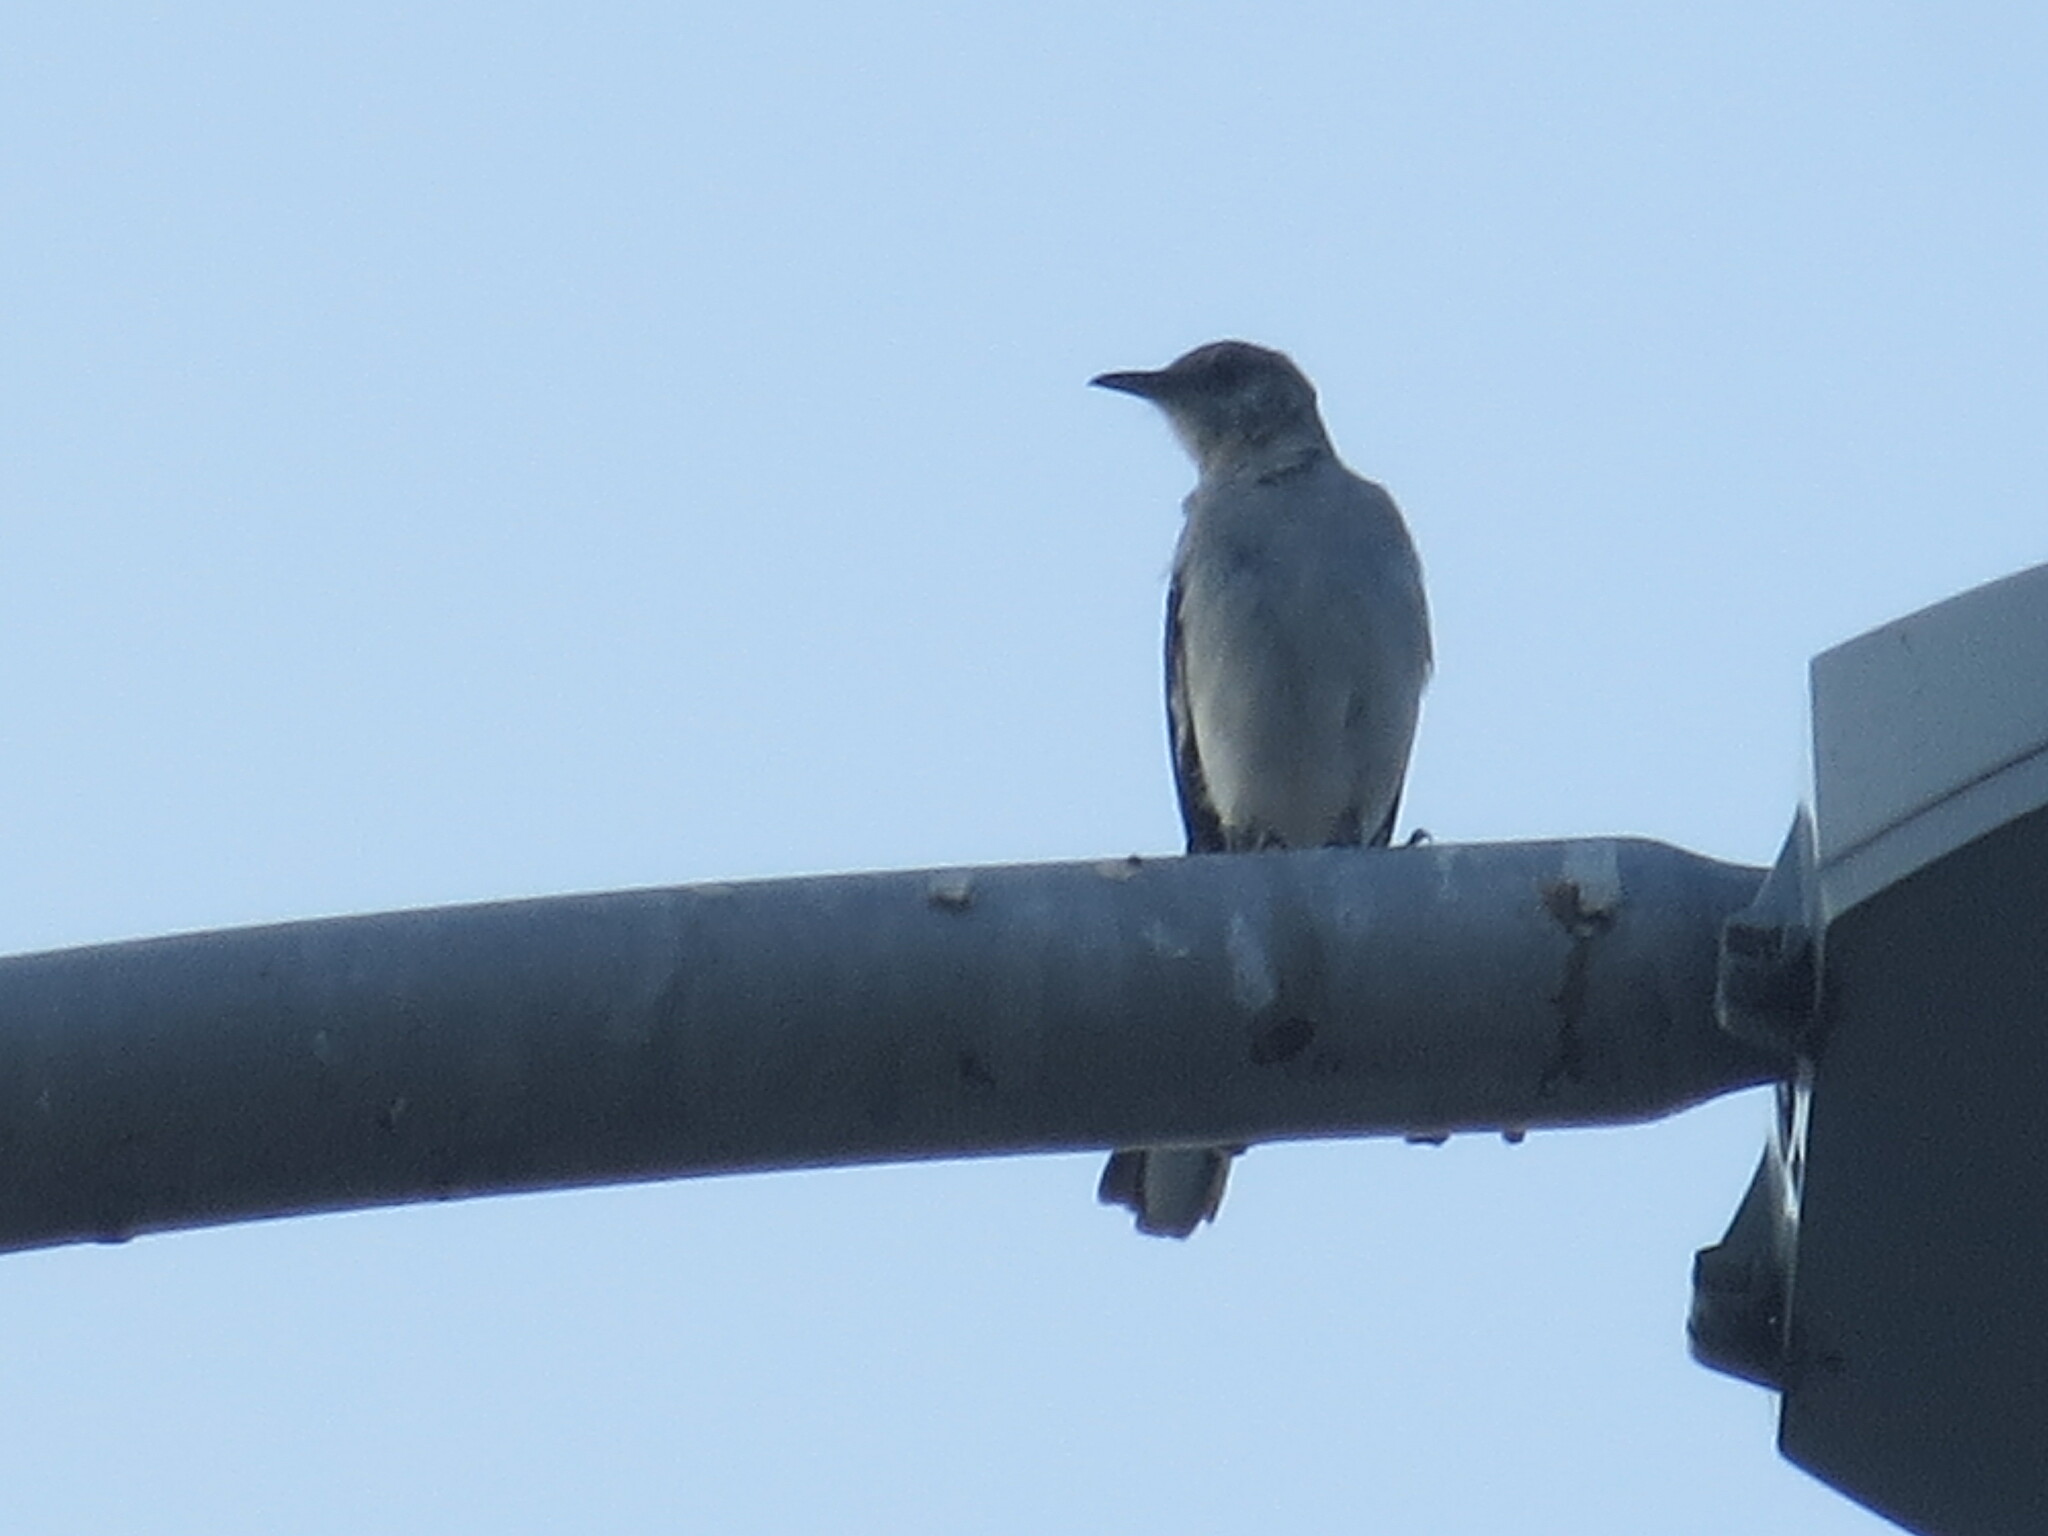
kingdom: Animalia
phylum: Chordata
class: Aves
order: Passeriformes
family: Mimidae
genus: Mimus
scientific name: Mimus polyglottos
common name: Northern mockingbird
